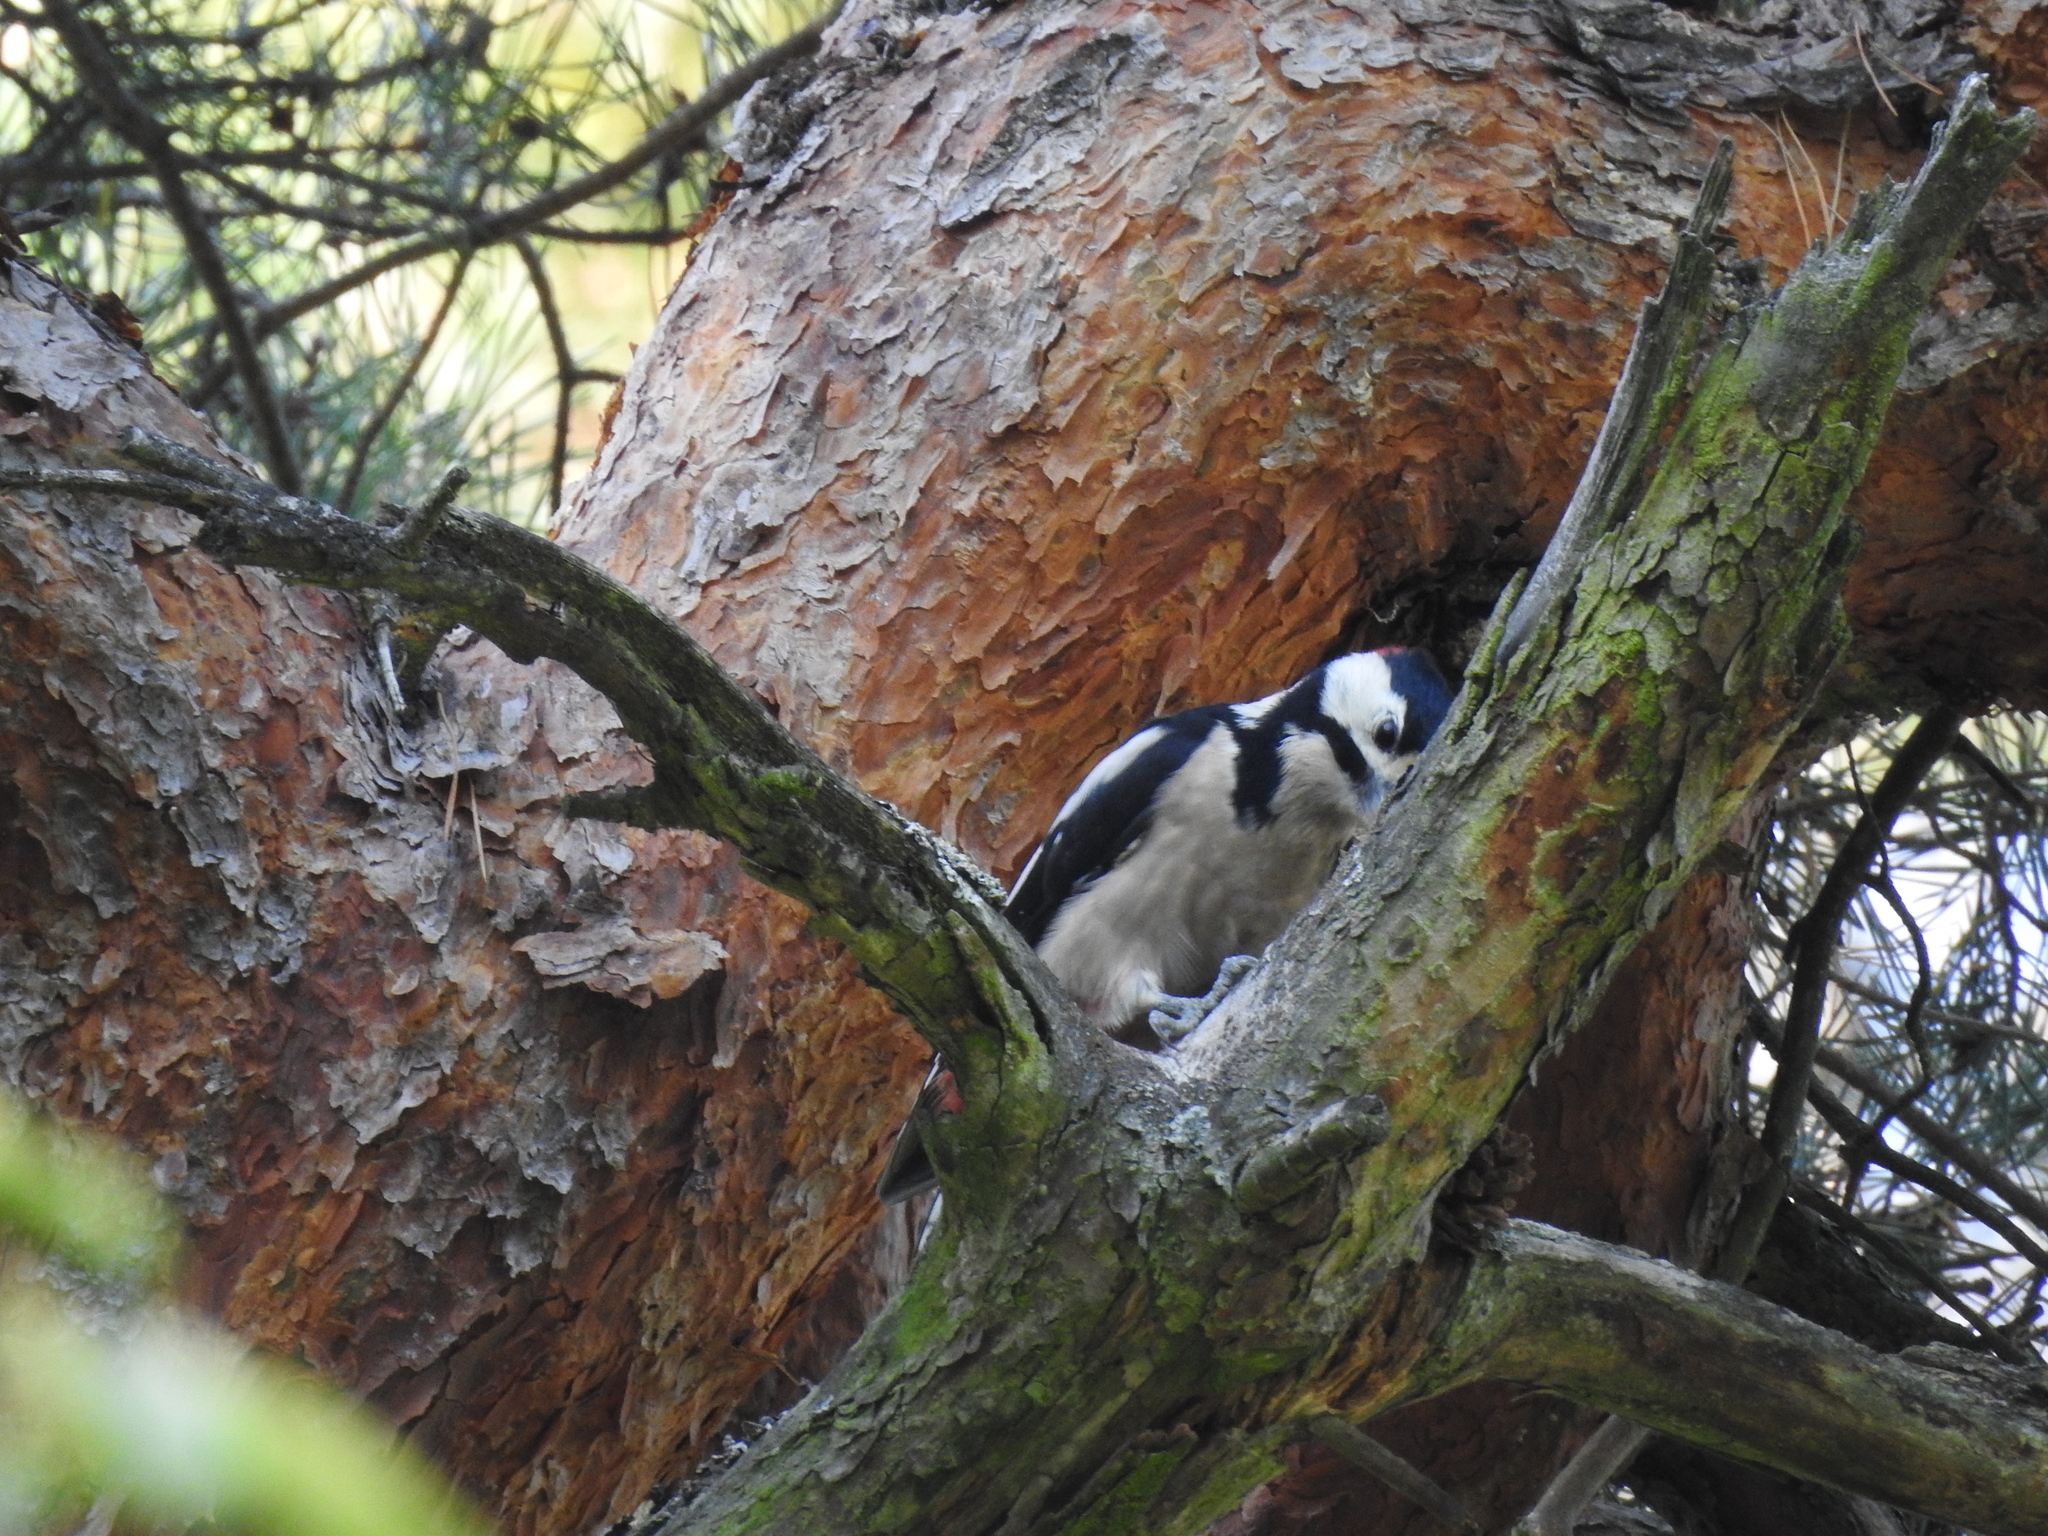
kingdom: Animalia
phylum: Chordata
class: Aves
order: Piciformes
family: Picidae
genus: Dendrocopos
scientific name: Dendrocopos major
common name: Great spotted woodpecker
